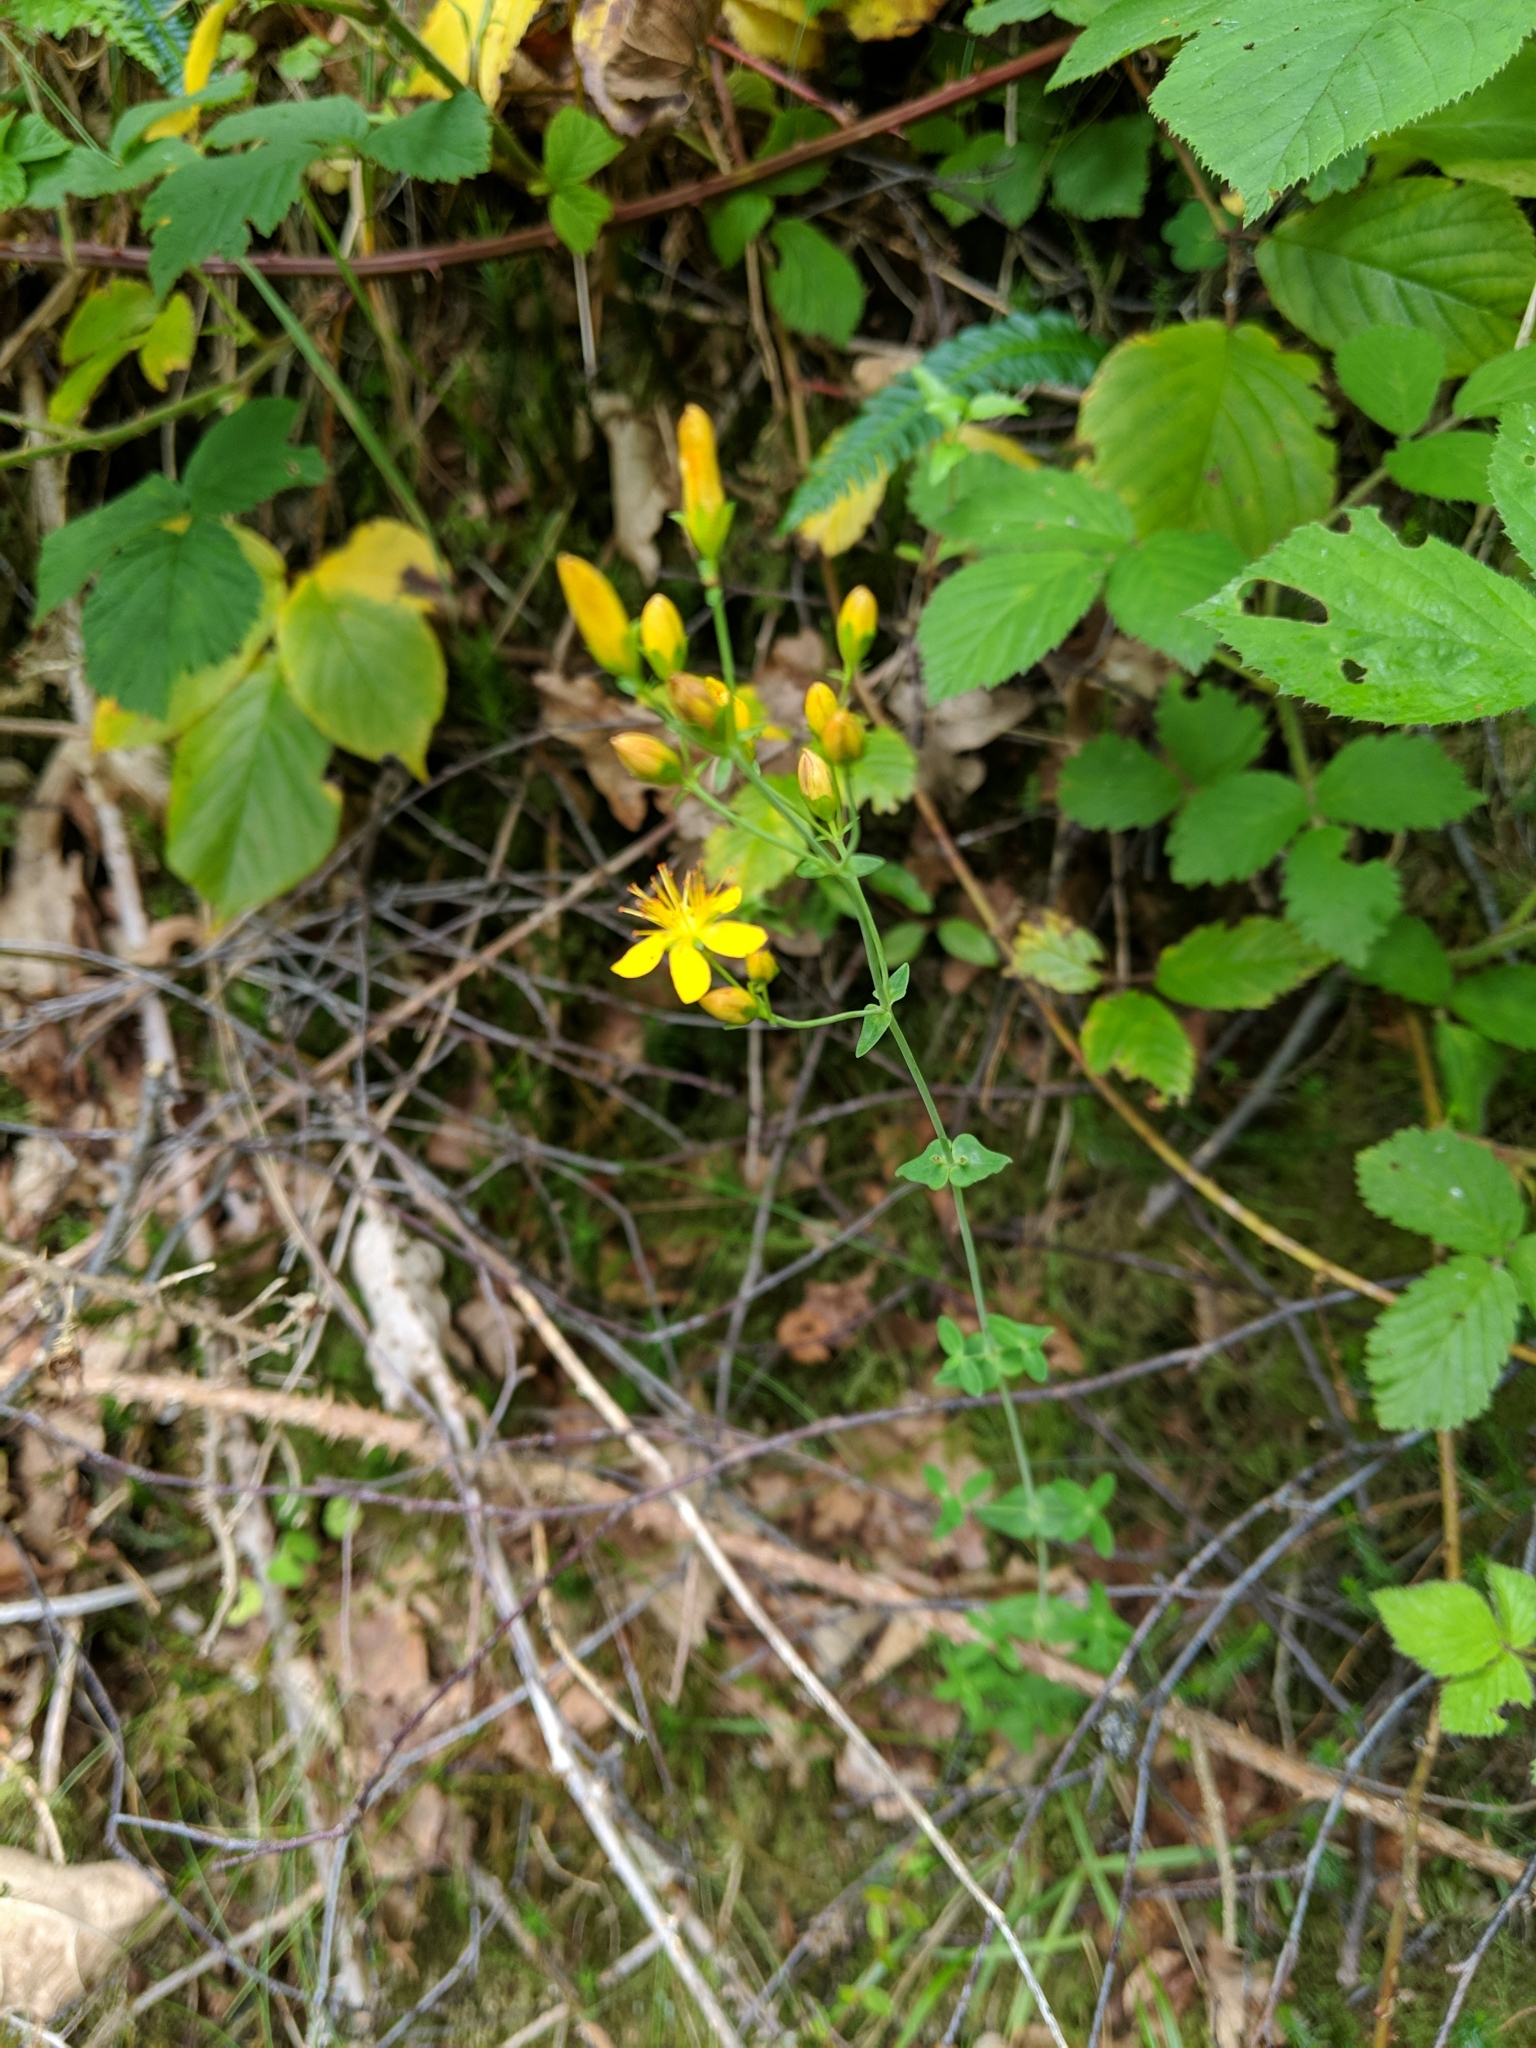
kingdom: Plantae
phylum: Tracheophyta
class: Magnoliopsida
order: Malpighiales
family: Hypericaceae
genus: Hypericum
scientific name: Hypericum pulchrum
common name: Slender st. john's-wort
